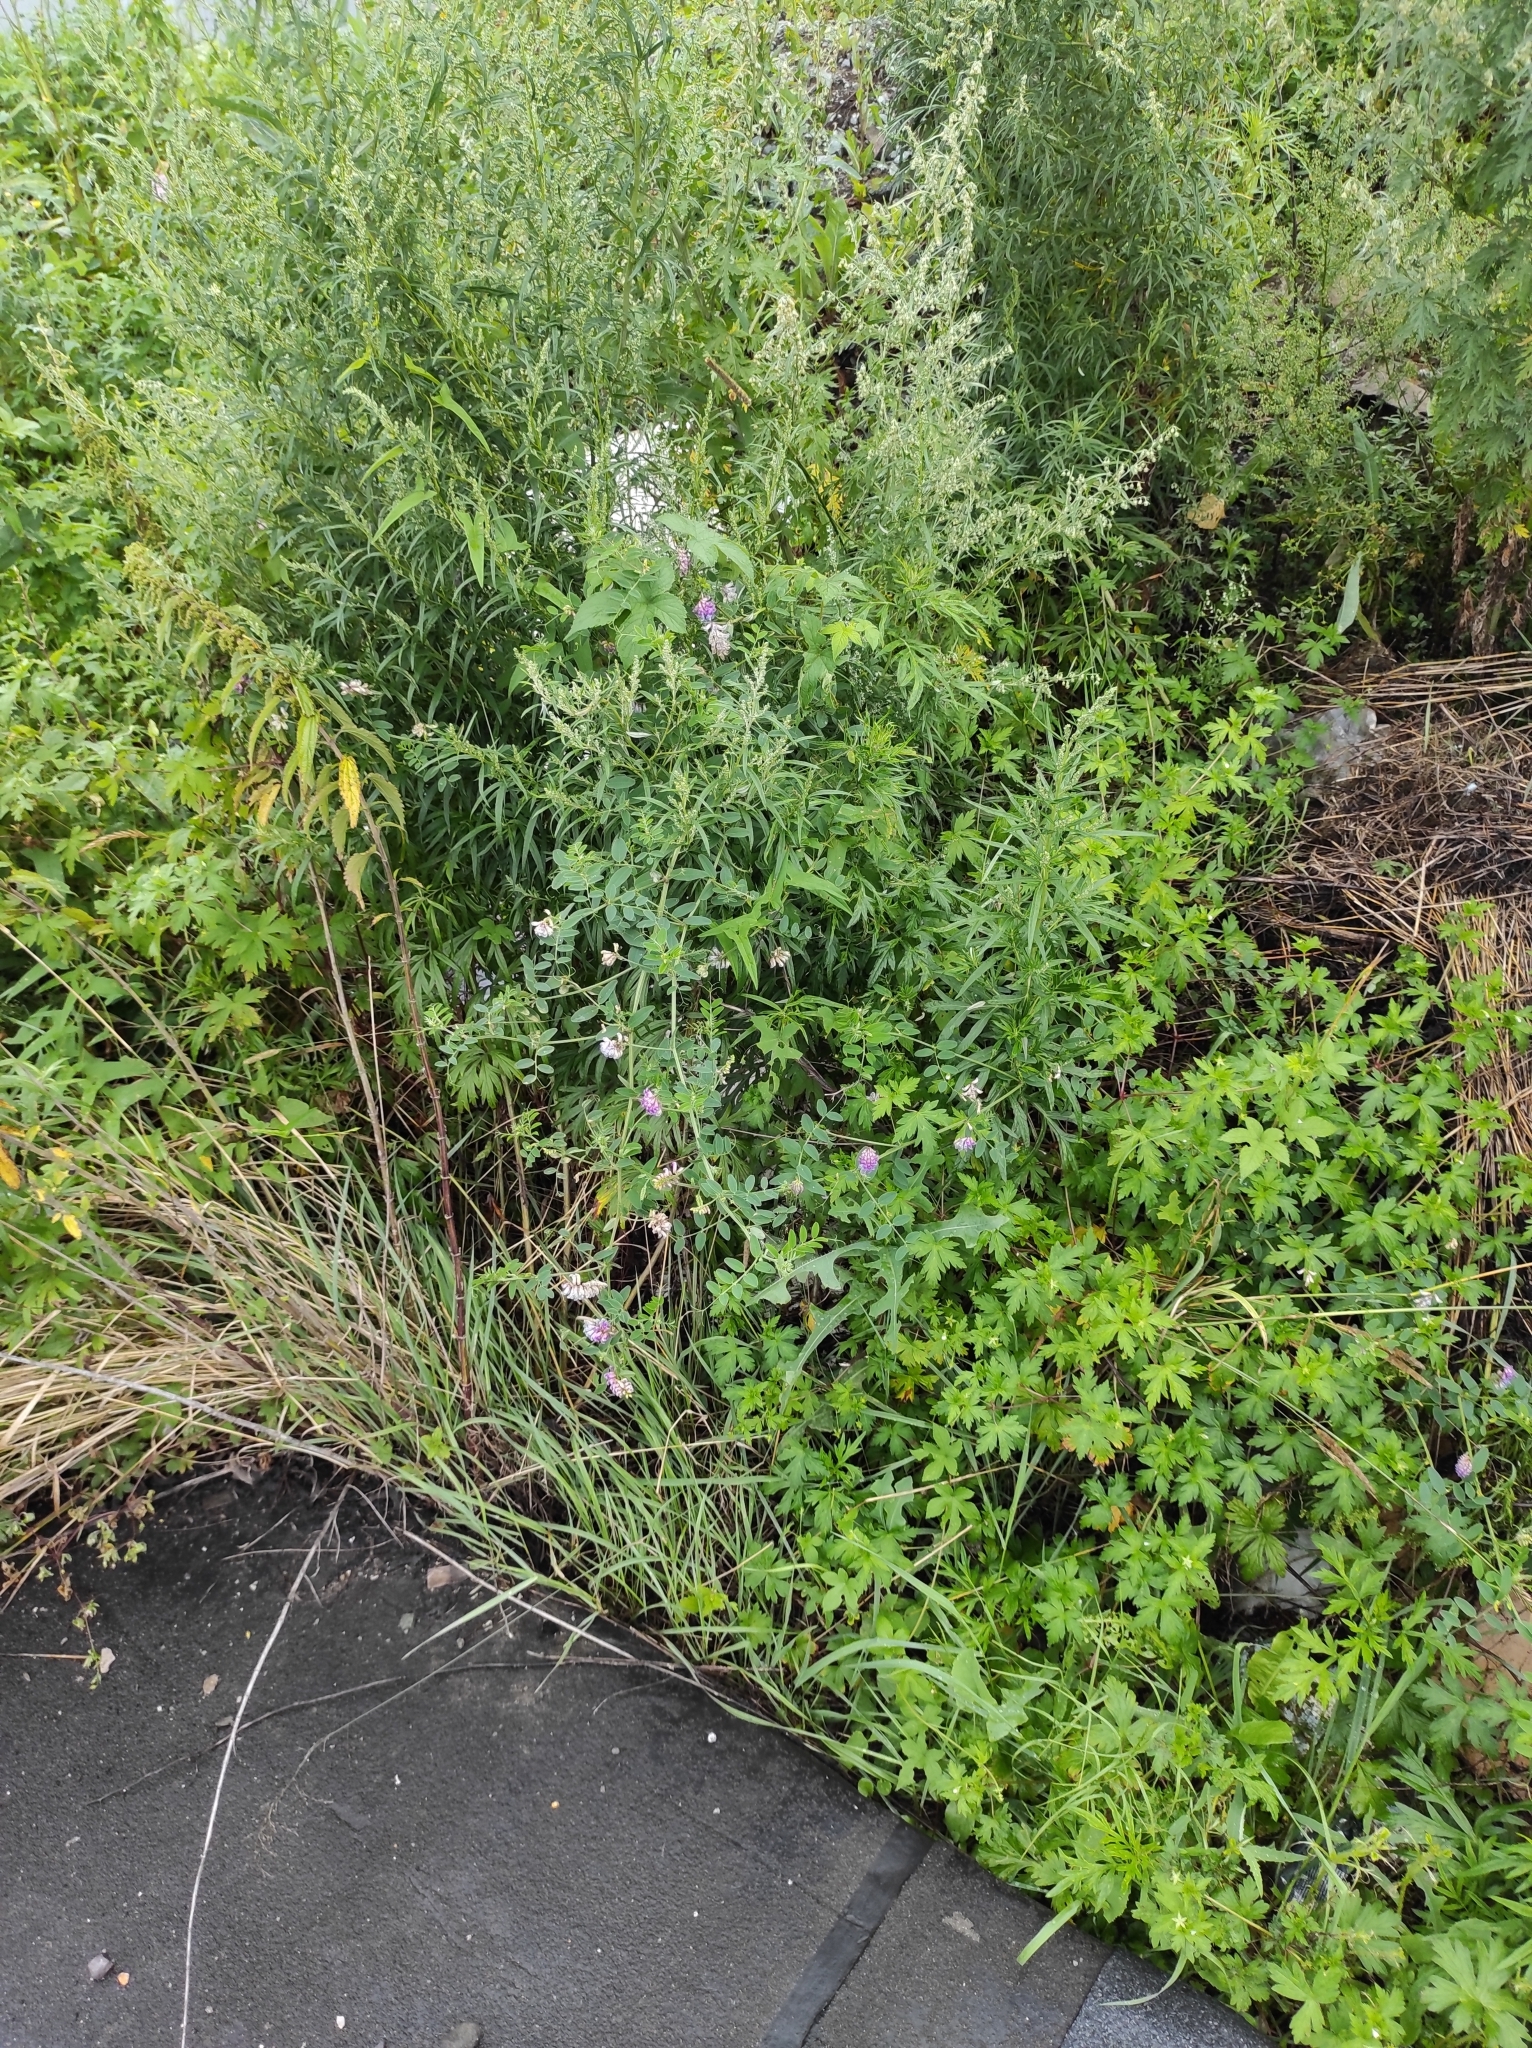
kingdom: Plantae
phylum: Tracheophyta
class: Magnoliopsida
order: Fabales
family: Fabaceae
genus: Vicia
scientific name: Vicia amurensis
